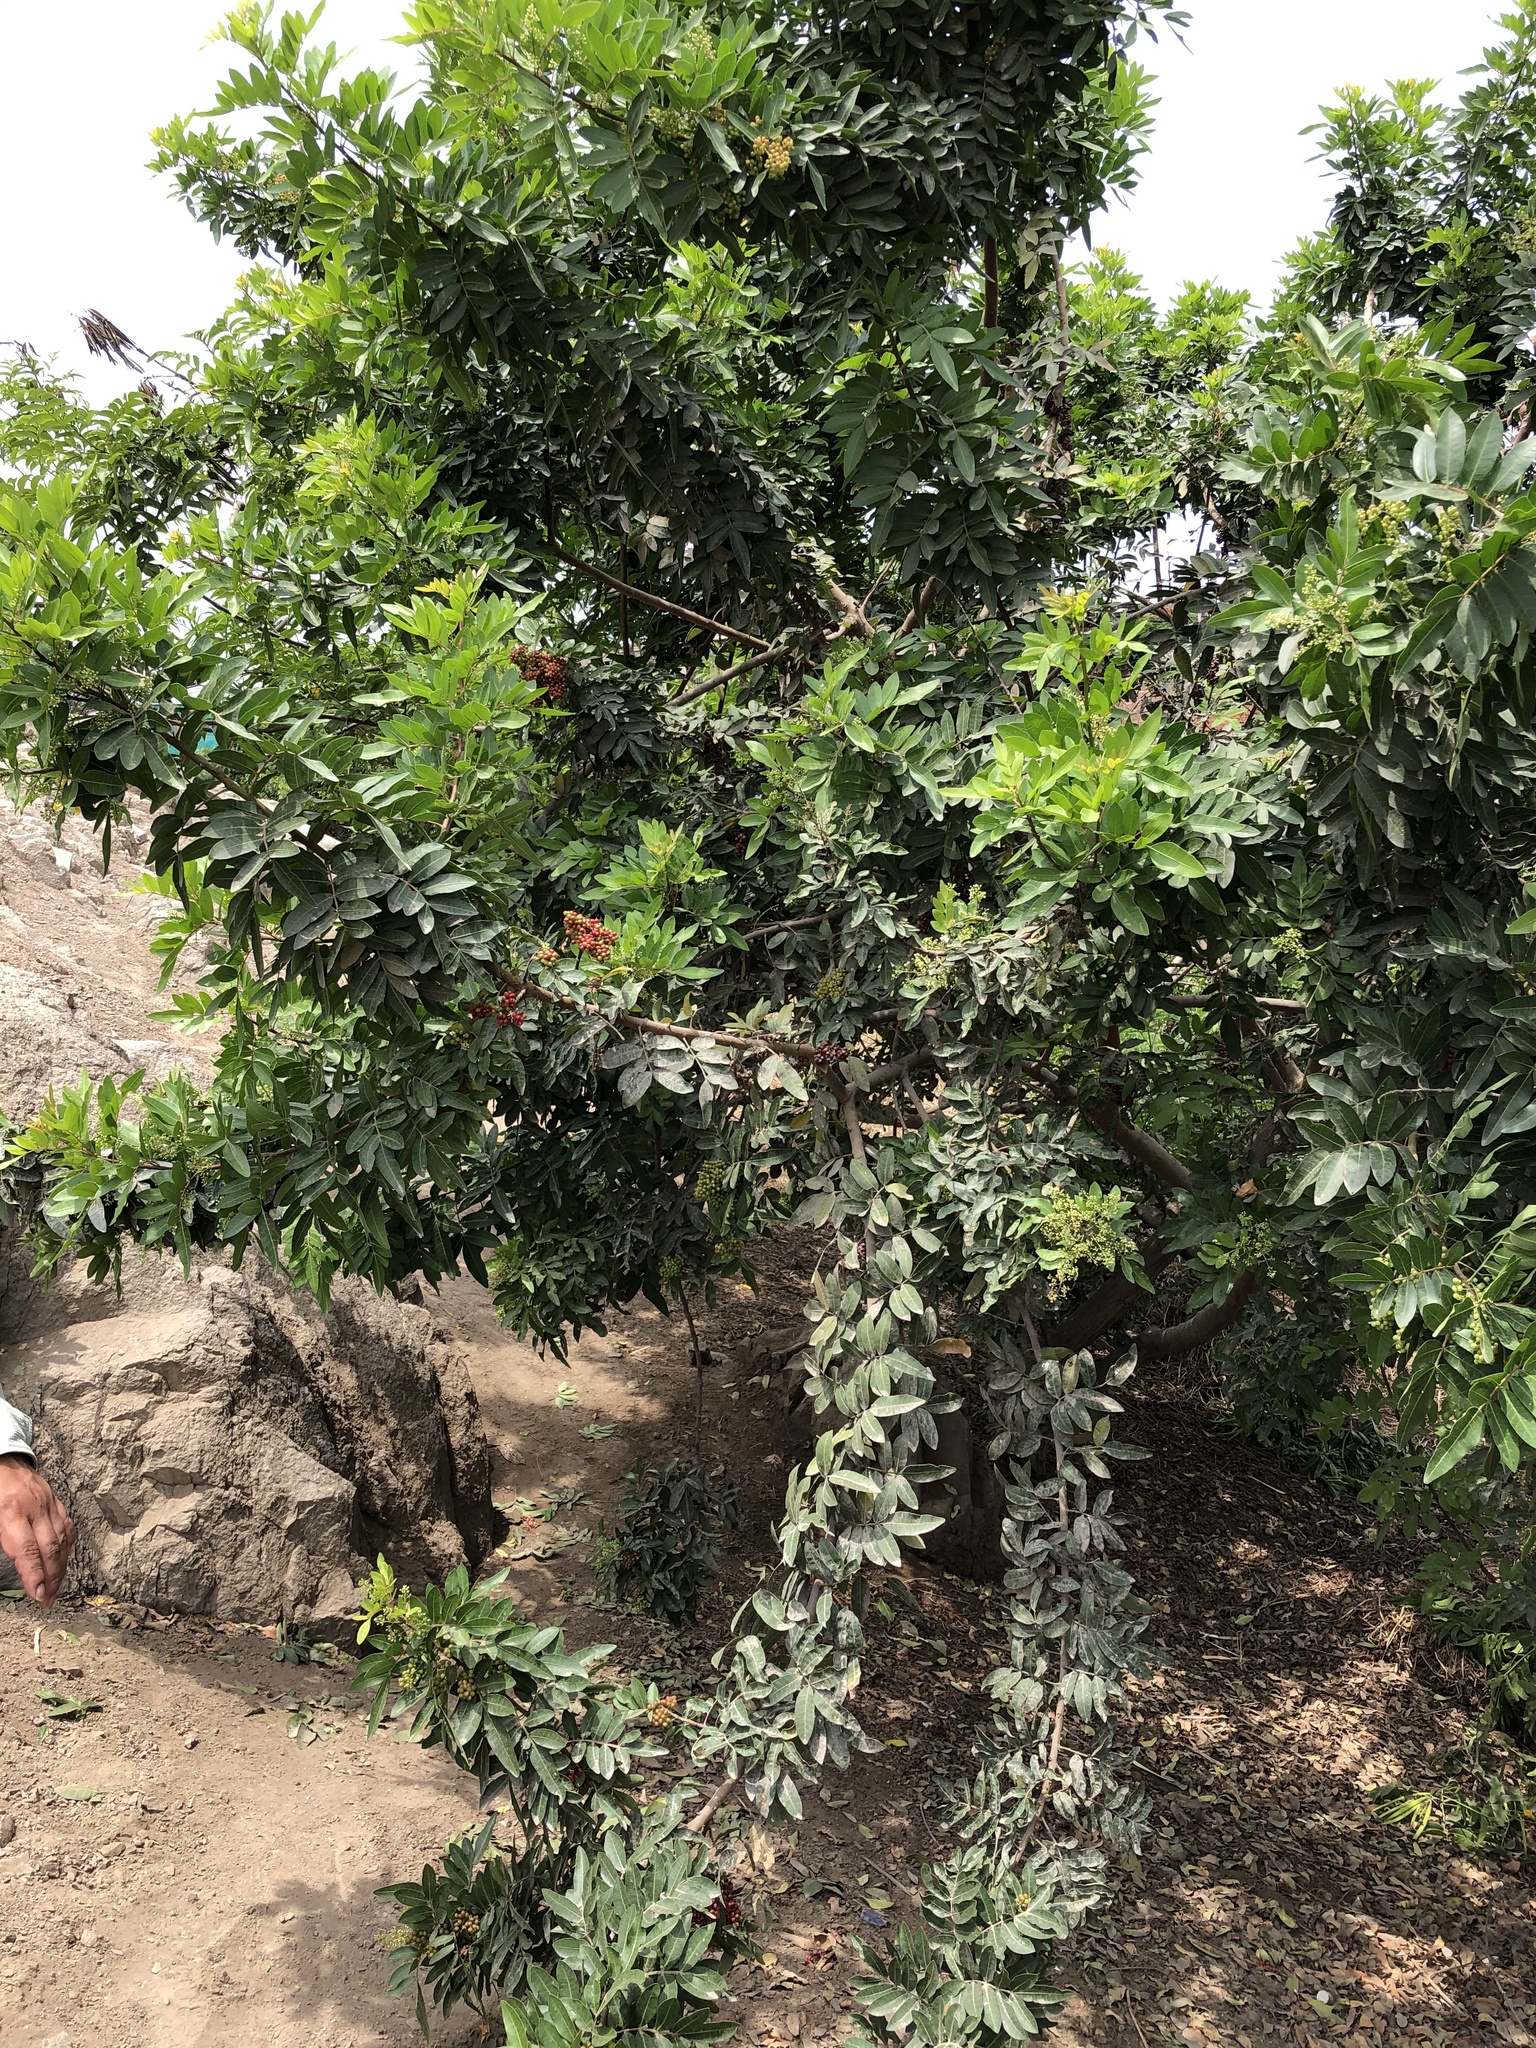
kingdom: Plantae
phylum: Tracheophyta
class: Magnoliopsida
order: Sapindales
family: Anacardiaceae
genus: Schinus
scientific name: Schinus terebinthifolia
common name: Brazilian peppertree
